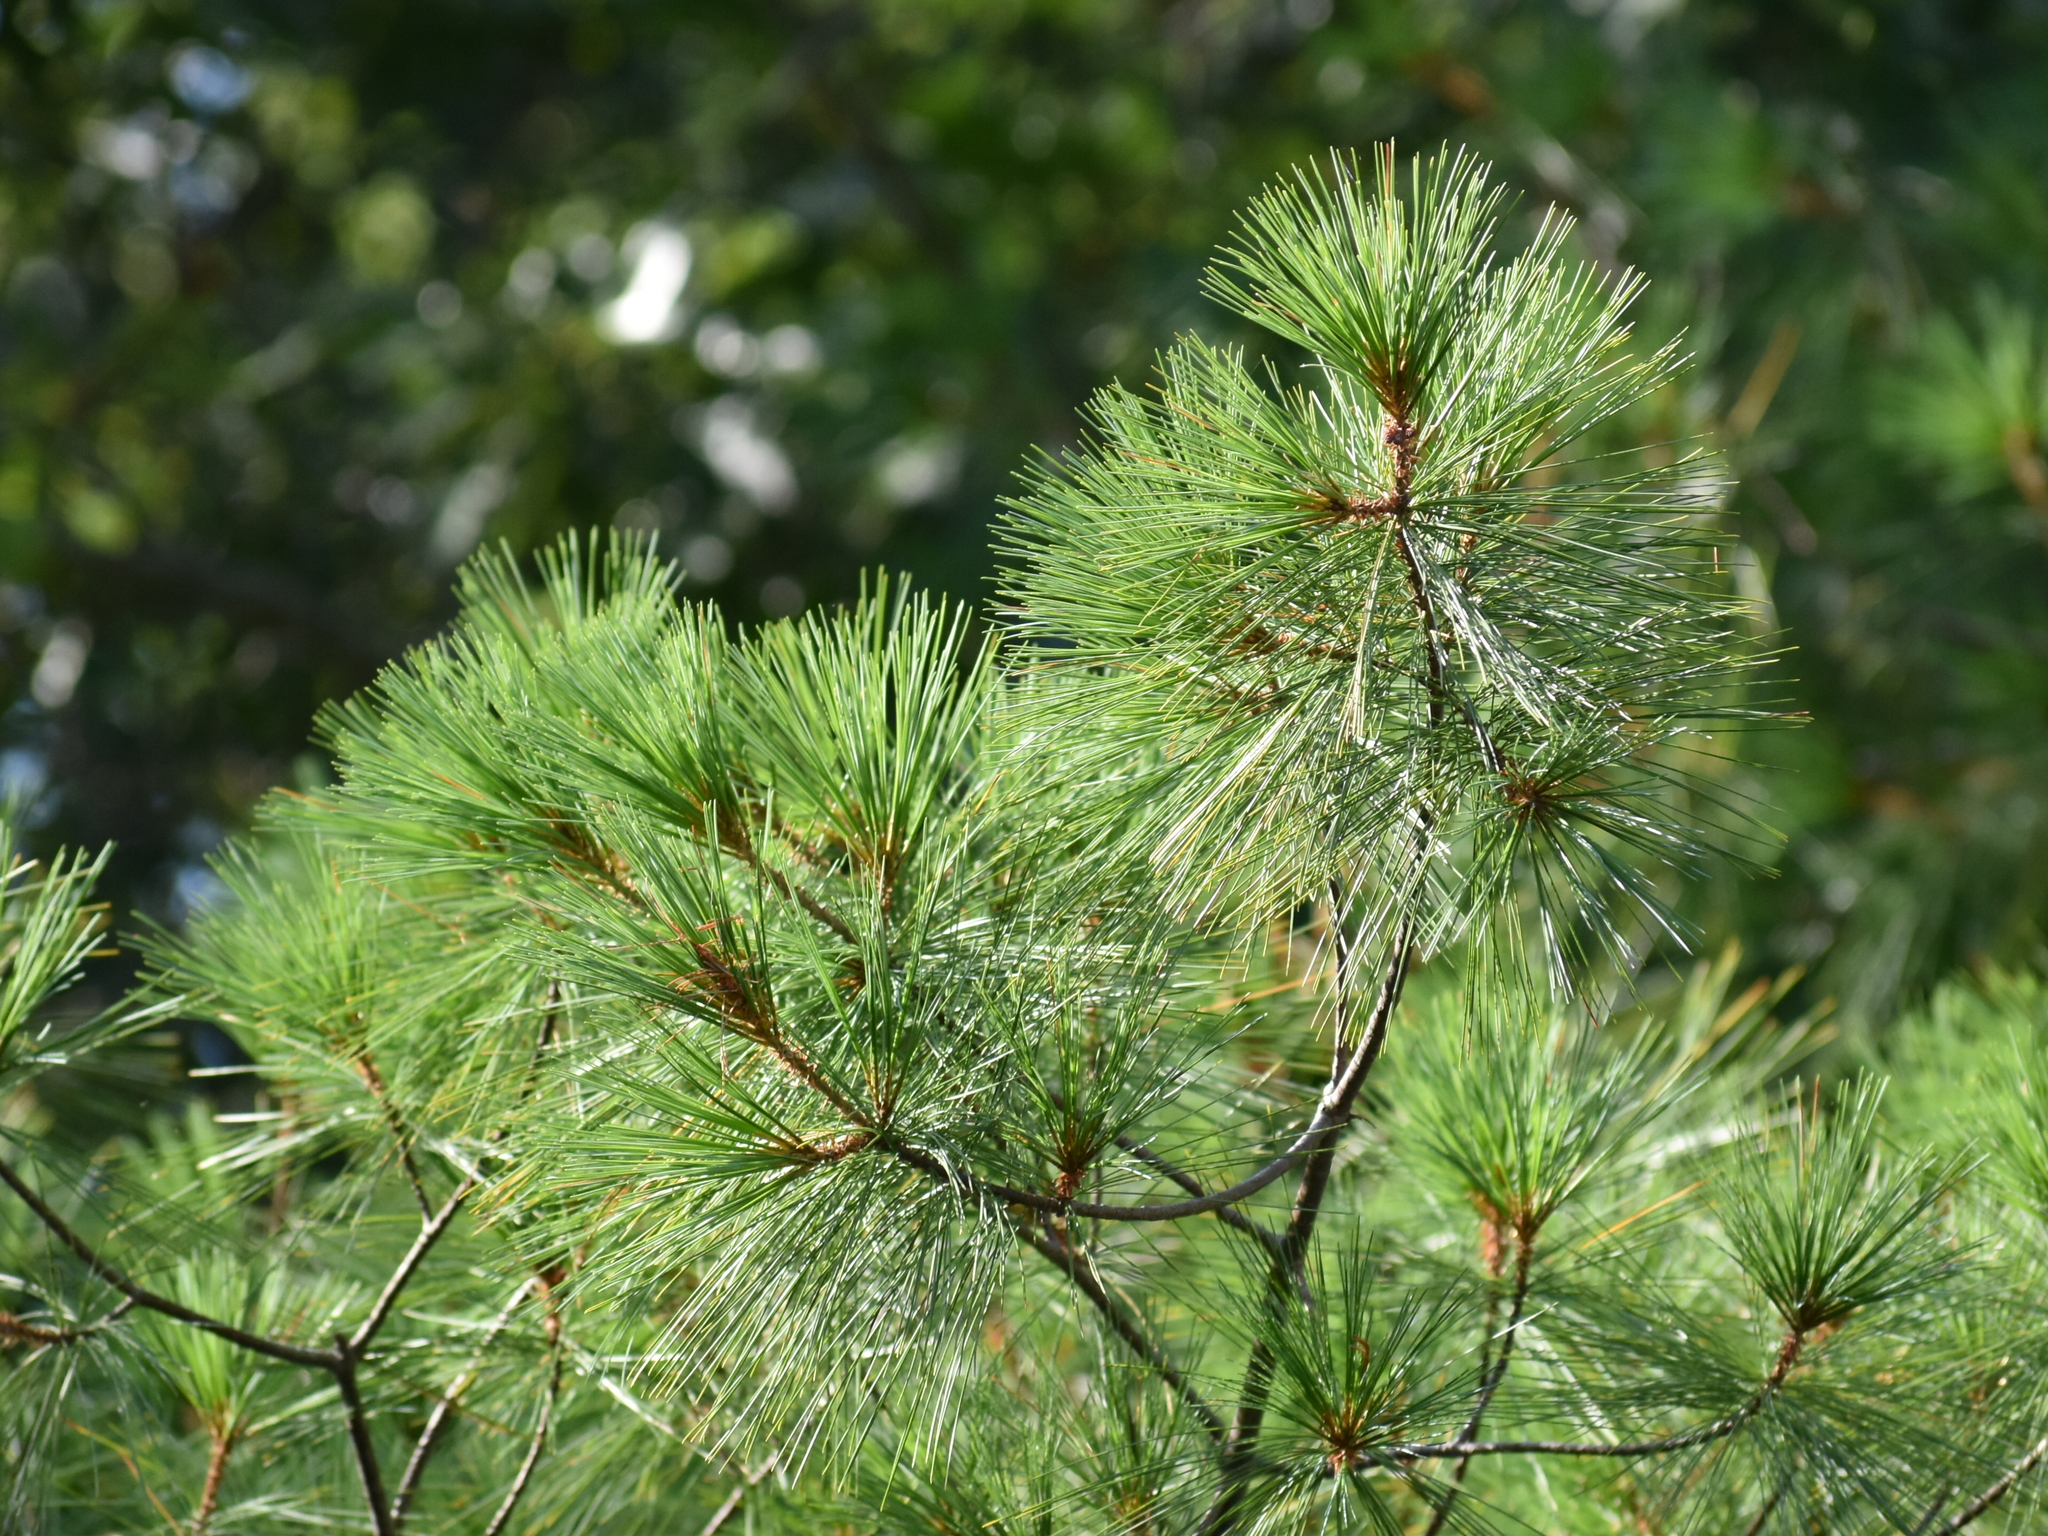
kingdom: Plantae
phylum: Tracheophyta
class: Pinopsida
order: Pinales
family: Pinaceae
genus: Pinus
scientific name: Pinus strobus
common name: Weymouth pine
